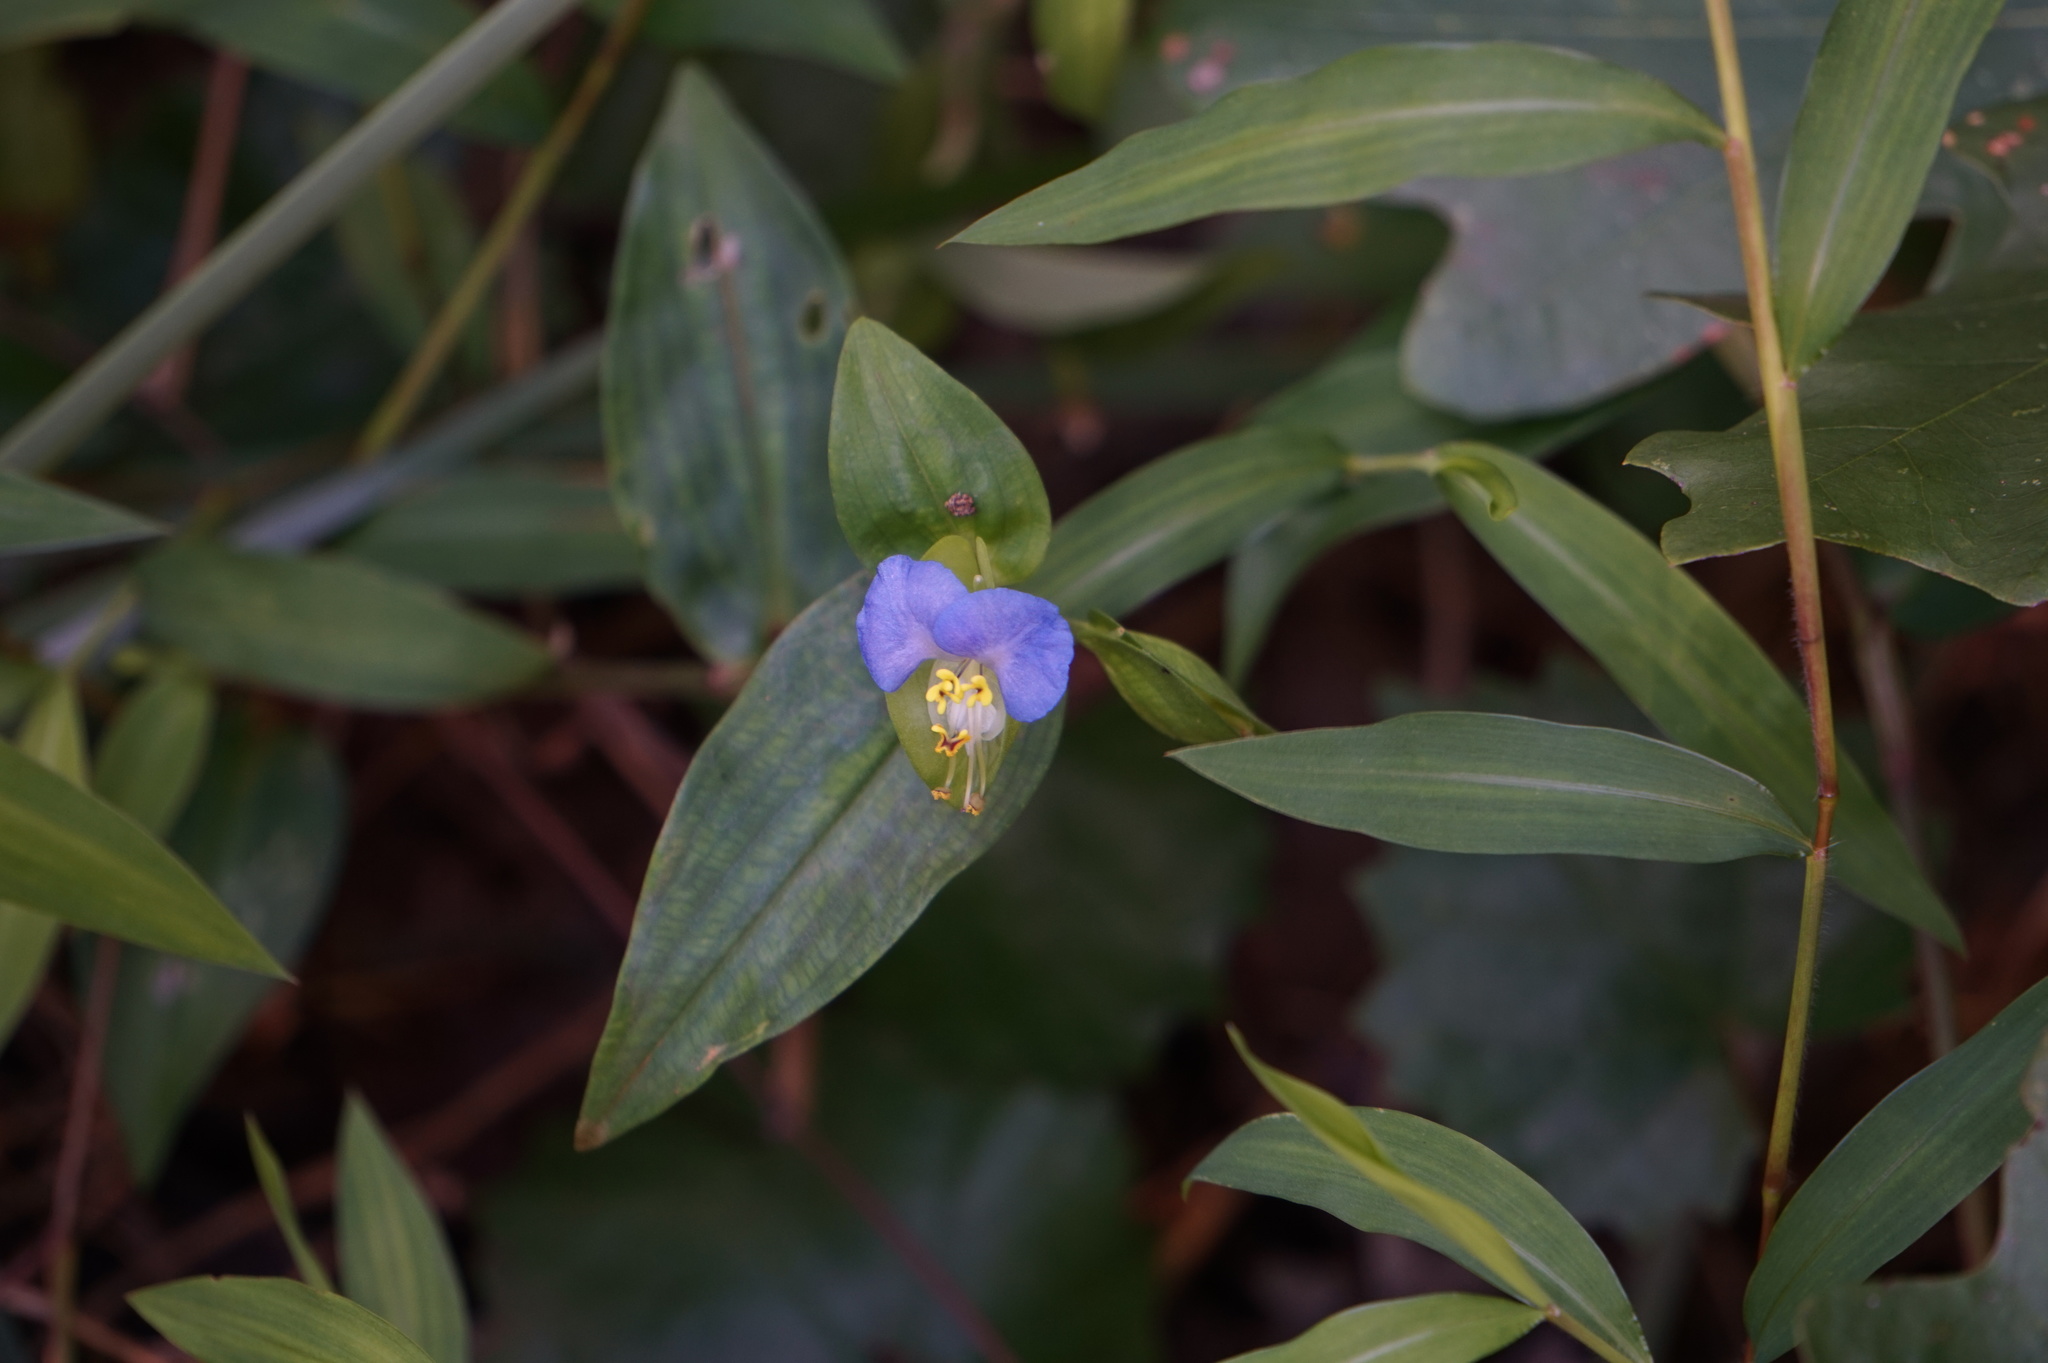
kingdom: Plantae
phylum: Tracheophyta
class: Liliopsida
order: Commelinales
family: Commelinaceae
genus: Commelina
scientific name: Commelina communis
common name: Asiatic dayflower
